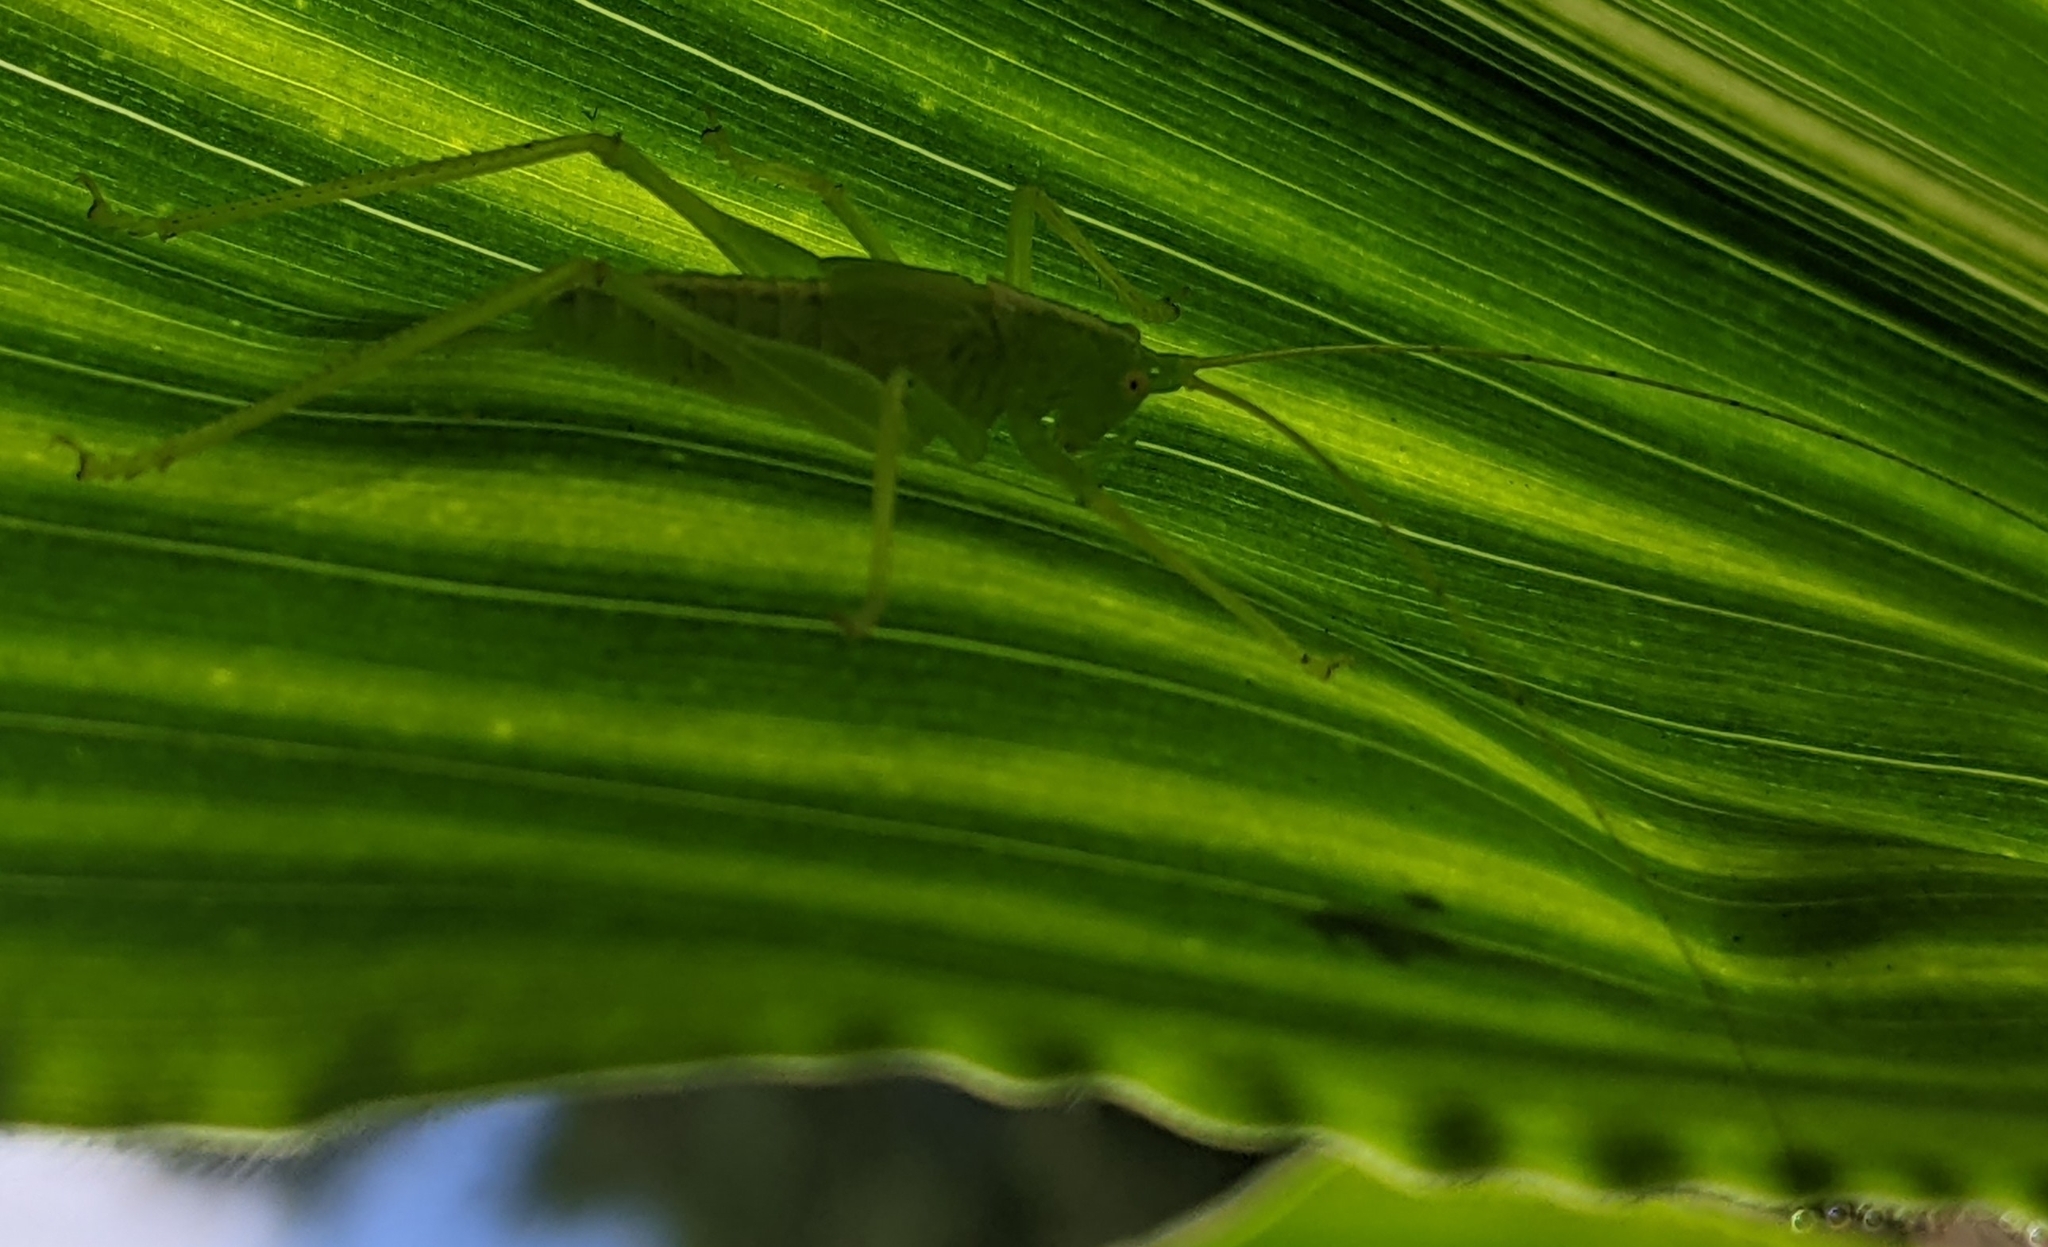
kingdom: Animalia
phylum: Arthropoda
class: Insecta
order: Orthoptera
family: Tettigoniidae
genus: Meconema
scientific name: Meconema thalassinum
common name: Oak bush-cricket
